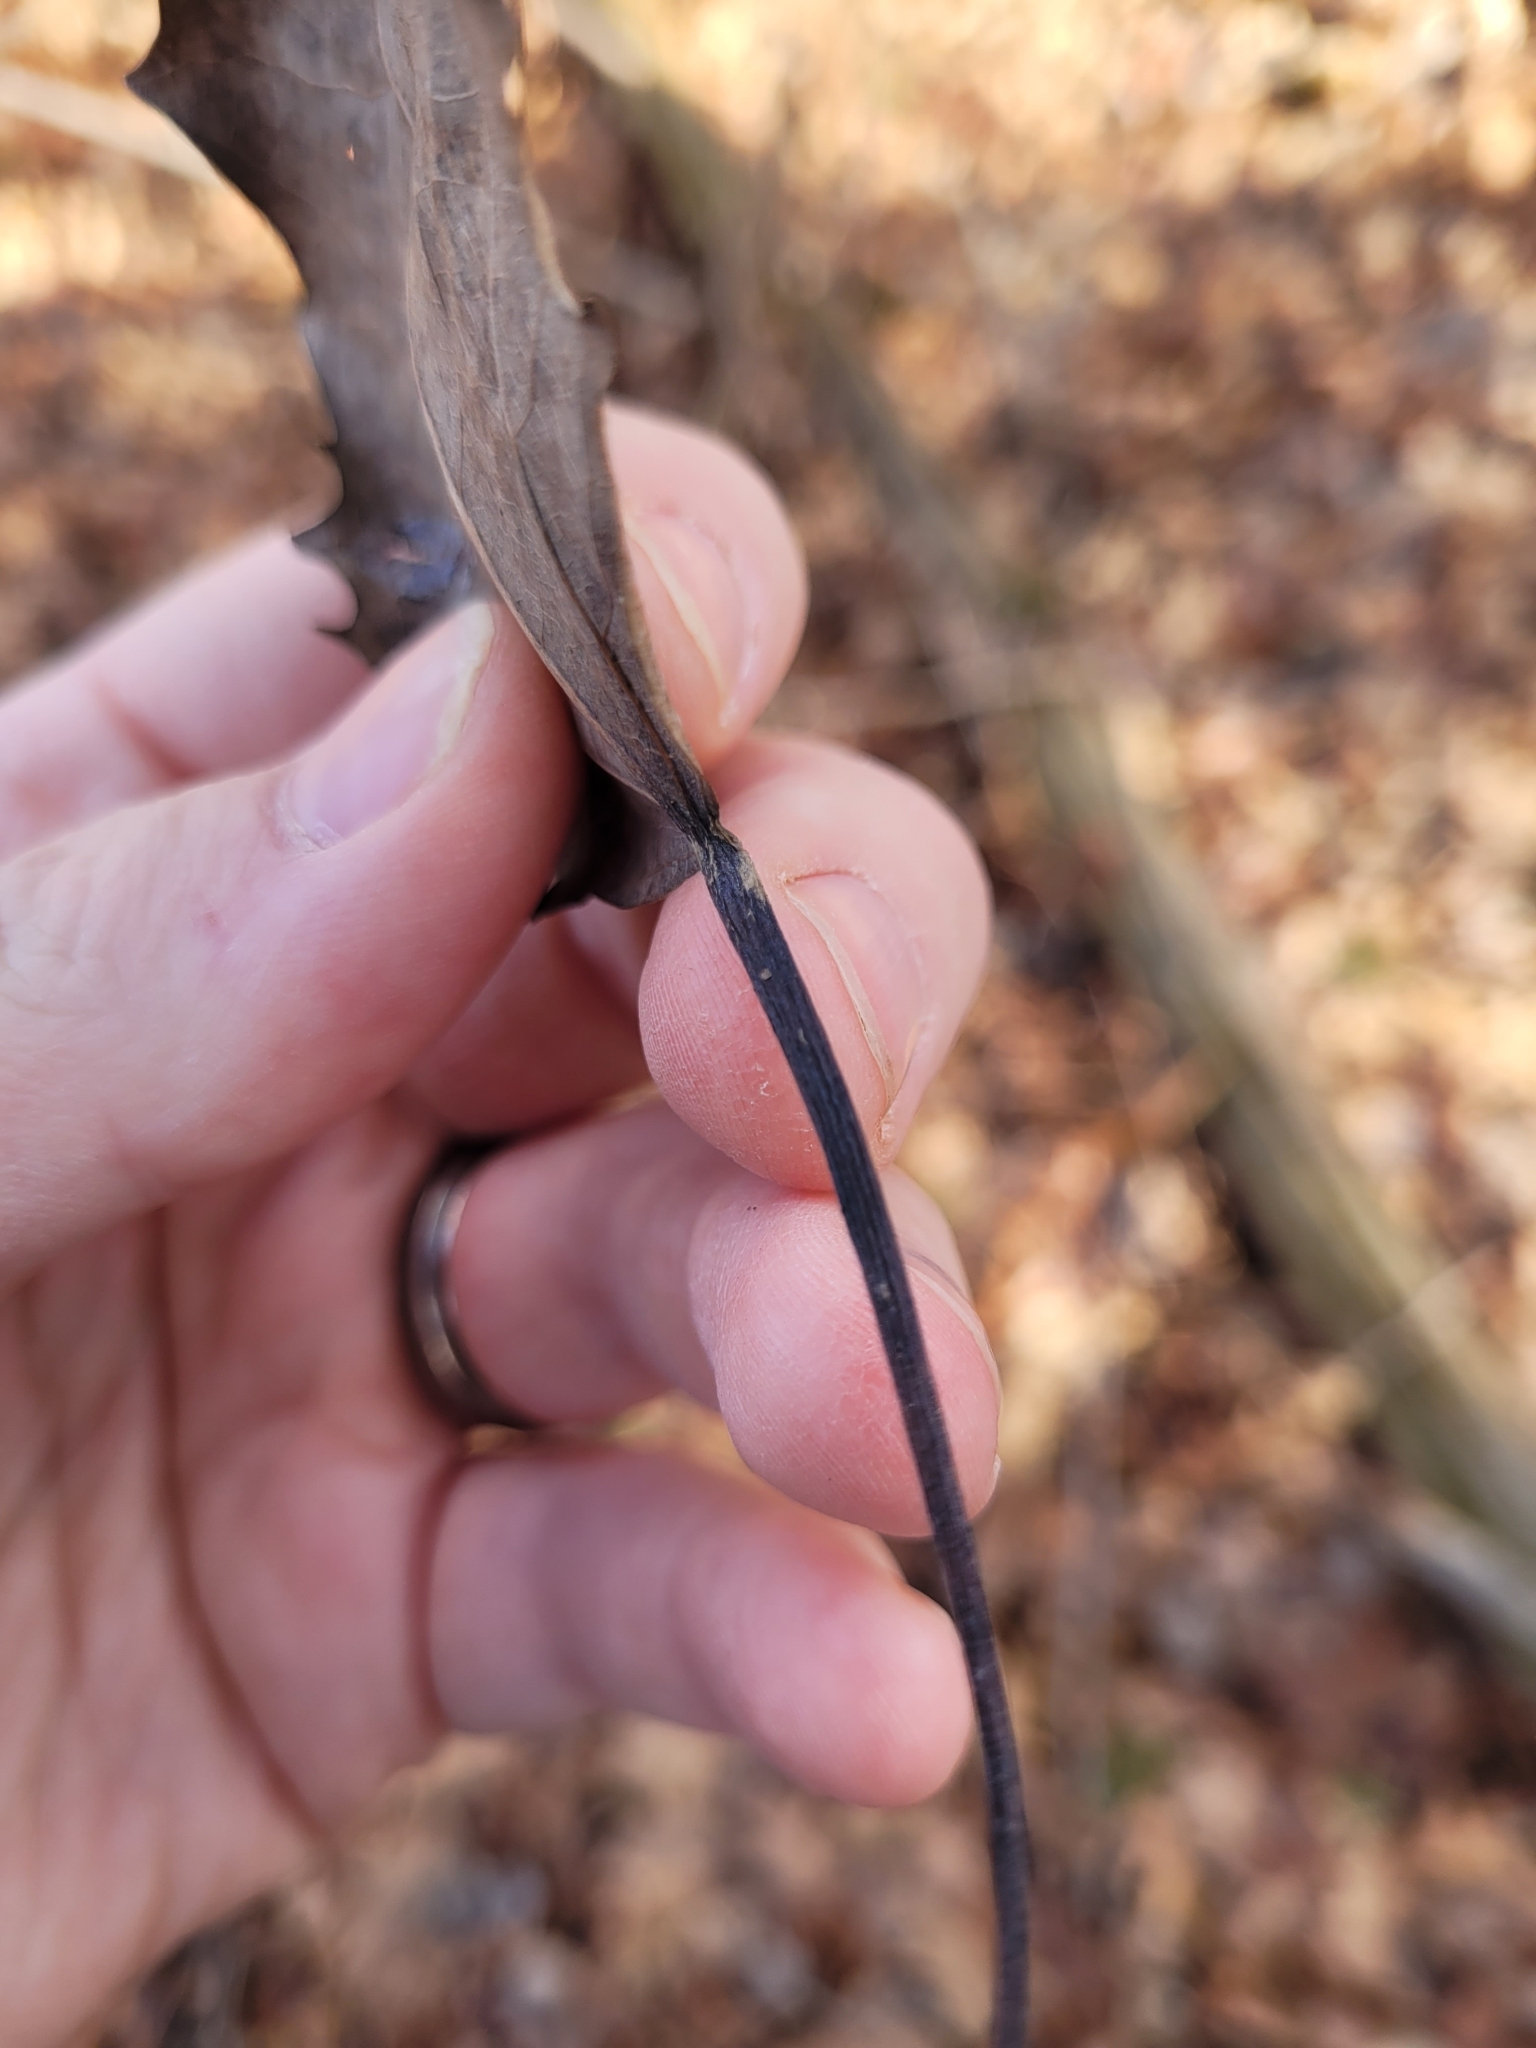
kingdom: Plantae
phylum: Tracheophyta
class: Magnoliopsida
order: Malpighiales
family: Salicaceae
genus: Populus
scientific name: Populus grandidentata
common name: Bigtooth aspen
